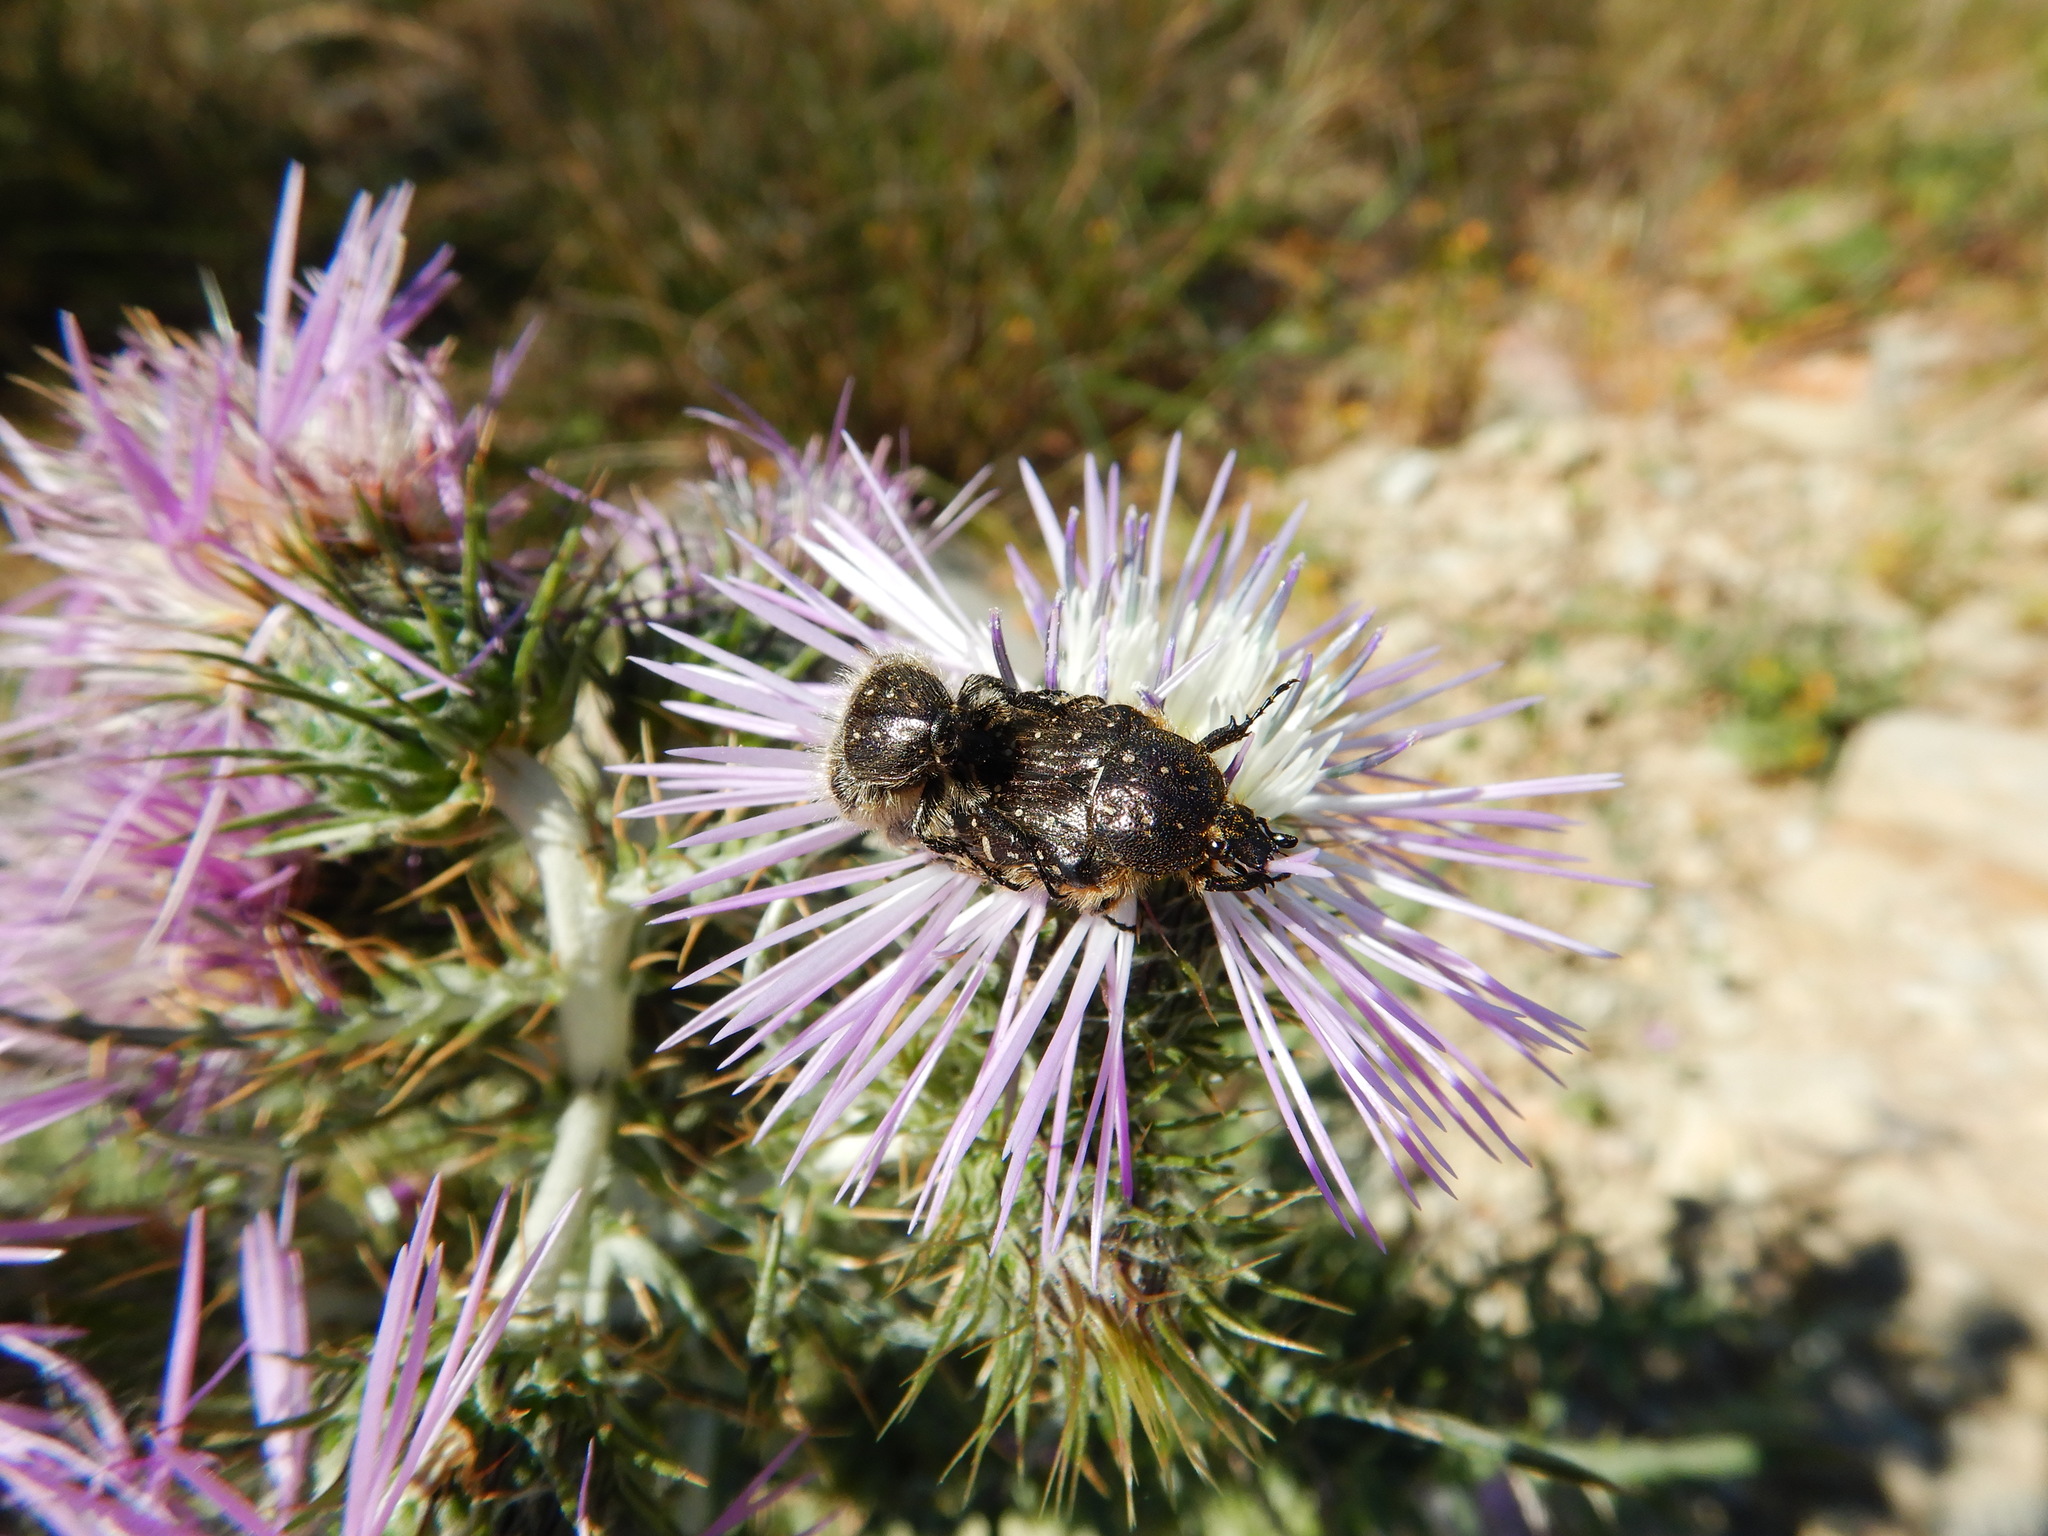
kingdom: Animalia
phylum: Arthropoda
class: Insecta
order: Coleoptera
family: Scarabaeidae
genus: Oxythyrea
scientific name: Oxythyrea funesta
